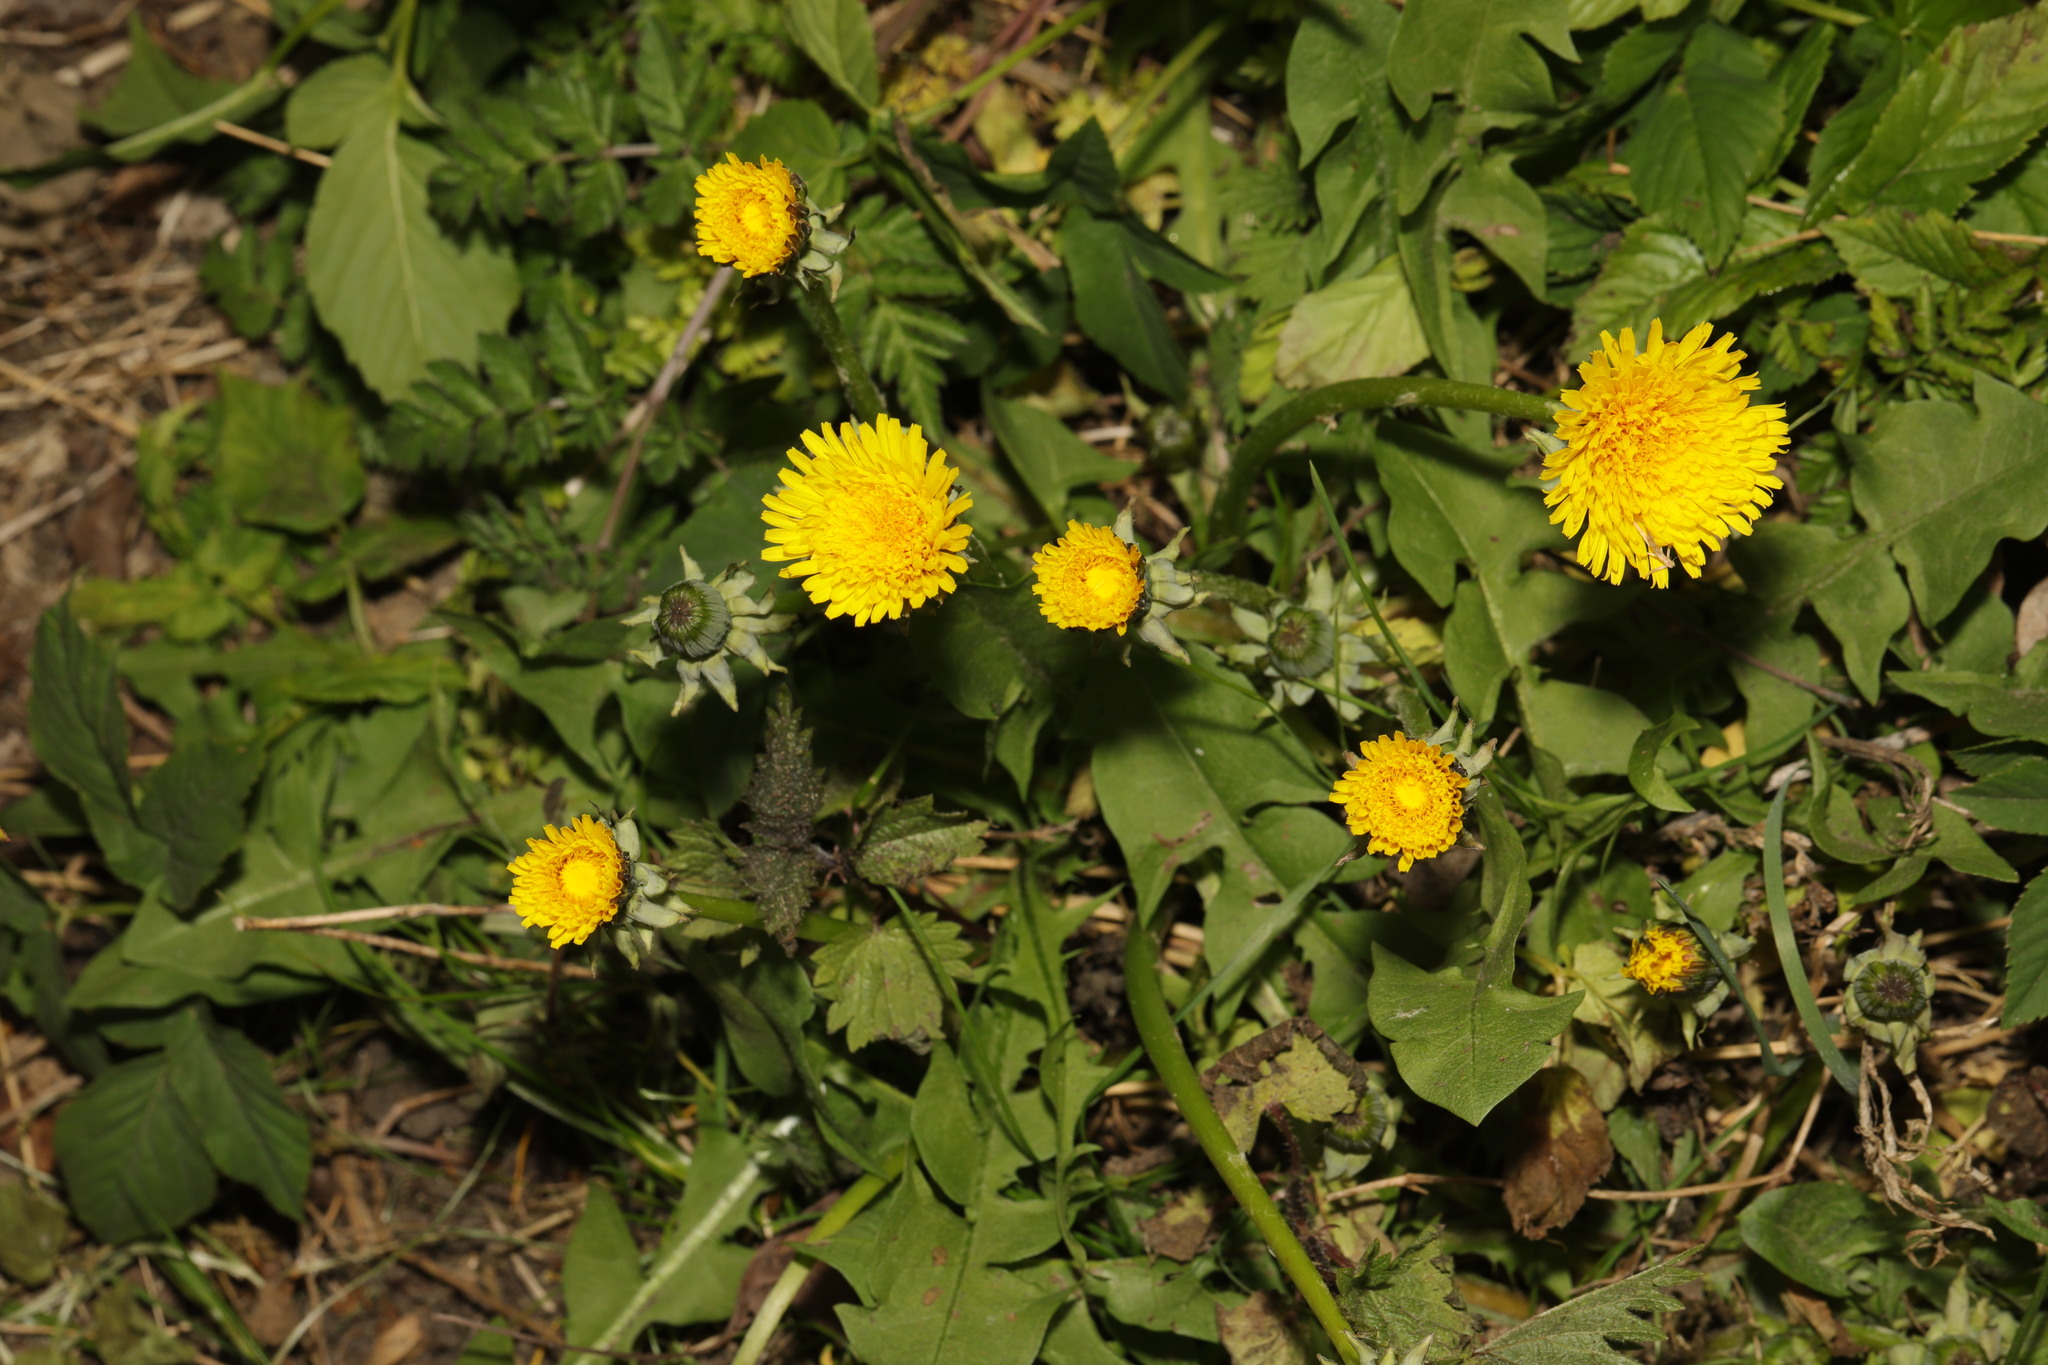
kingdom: Plantae
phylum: Tracheophyta
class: Magnoliopsida
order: Asterales
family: Asteraceae
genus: Taraxacum
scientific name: Taraxacum officinale
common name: Common dandelion
